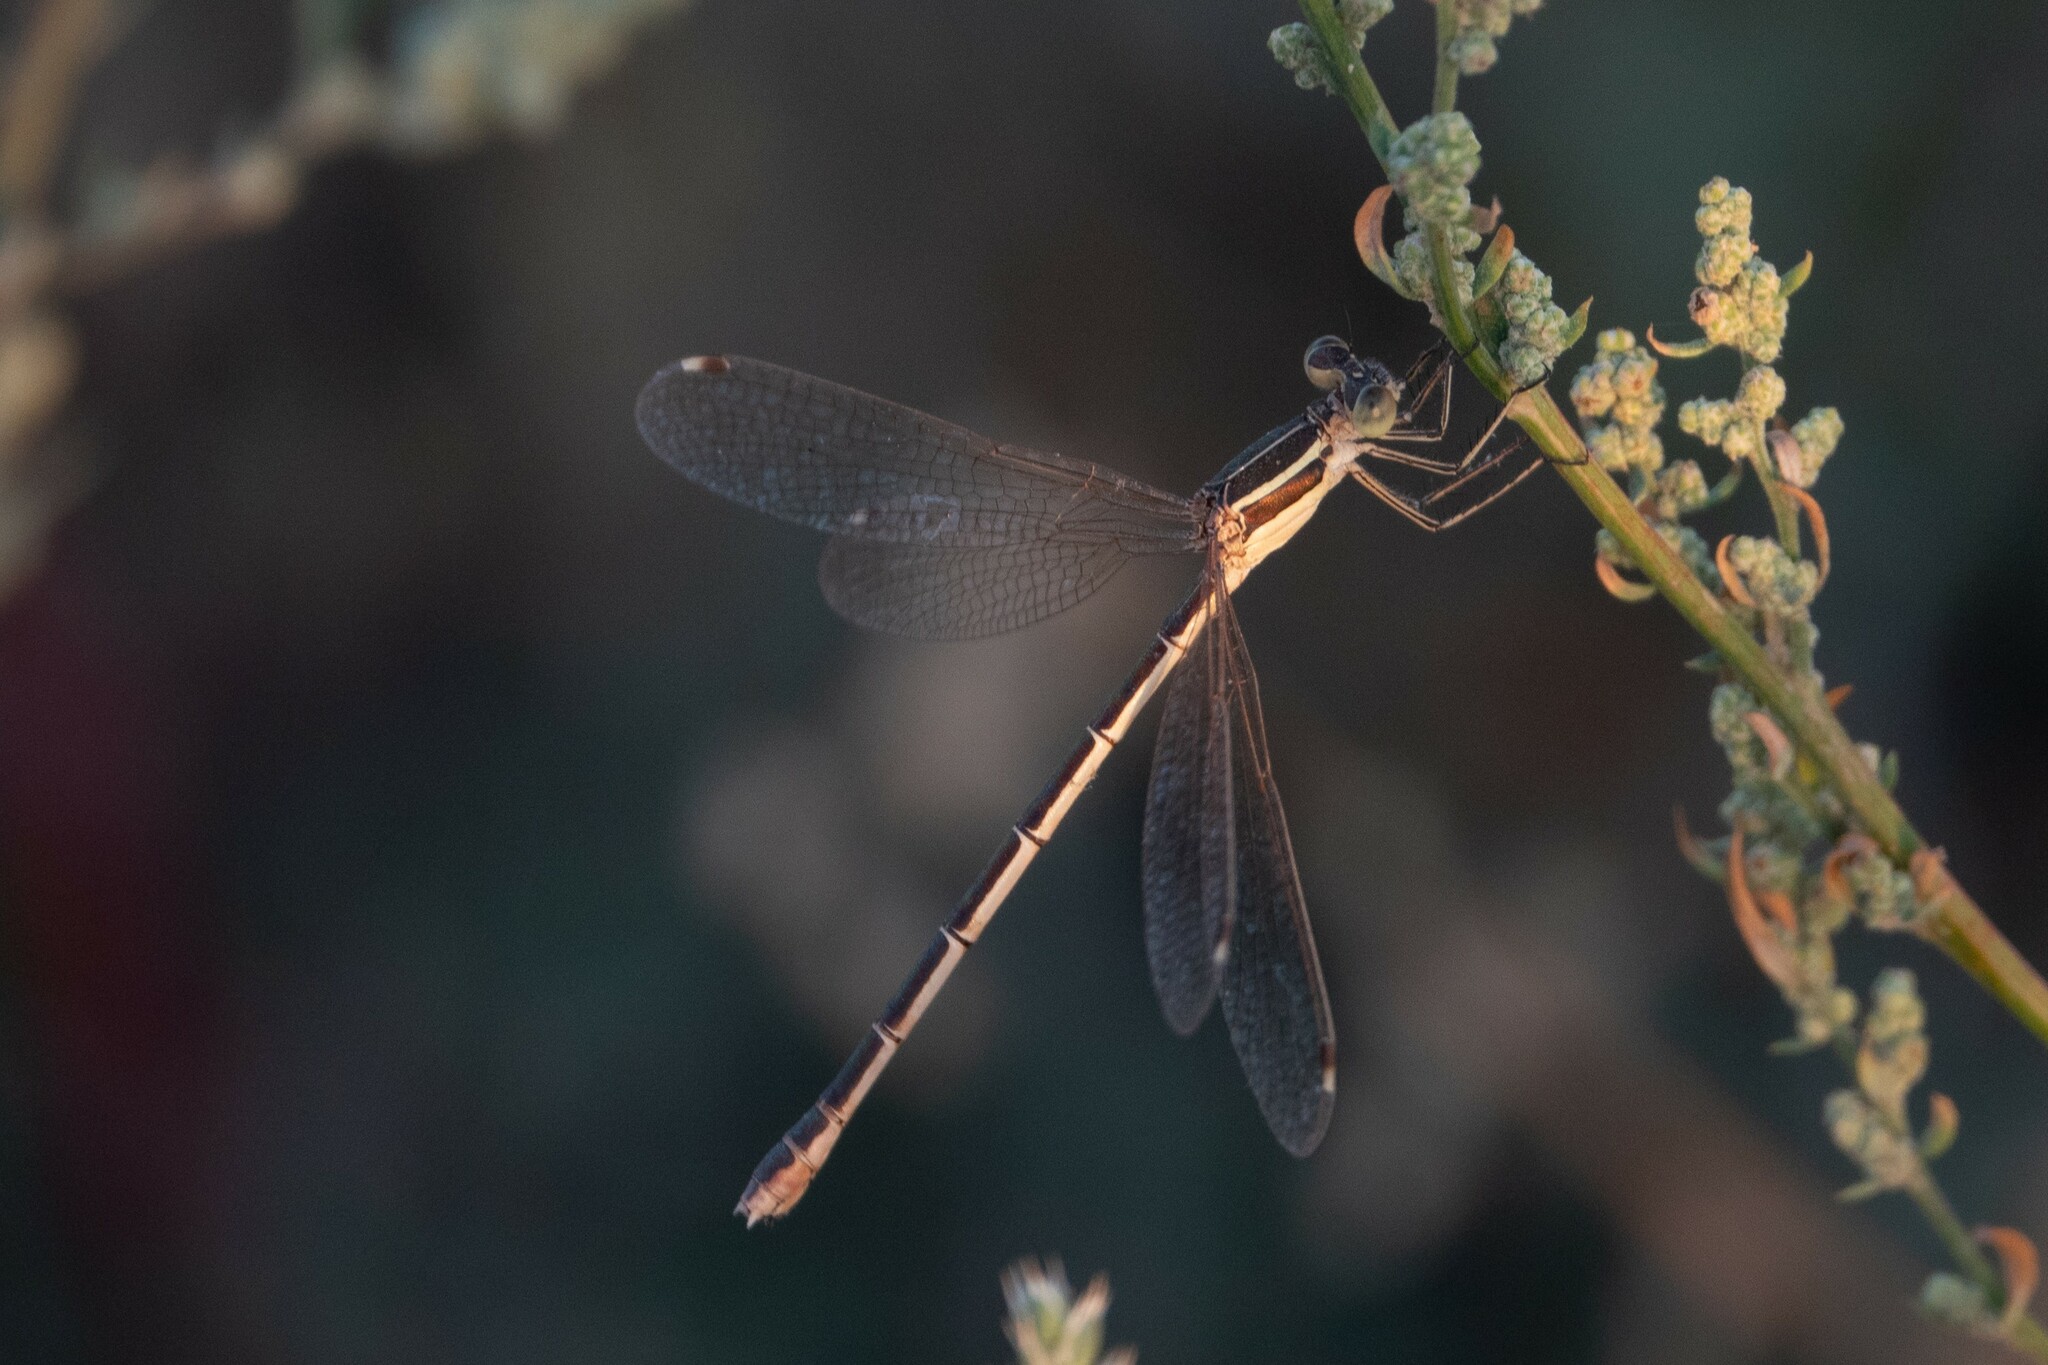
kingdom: Animalia
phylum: Arthropoda
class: Insecta
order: Odonata
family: Lestidae
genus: Lestes
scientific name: Lestes barbarus
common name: Migrant spreadwing
